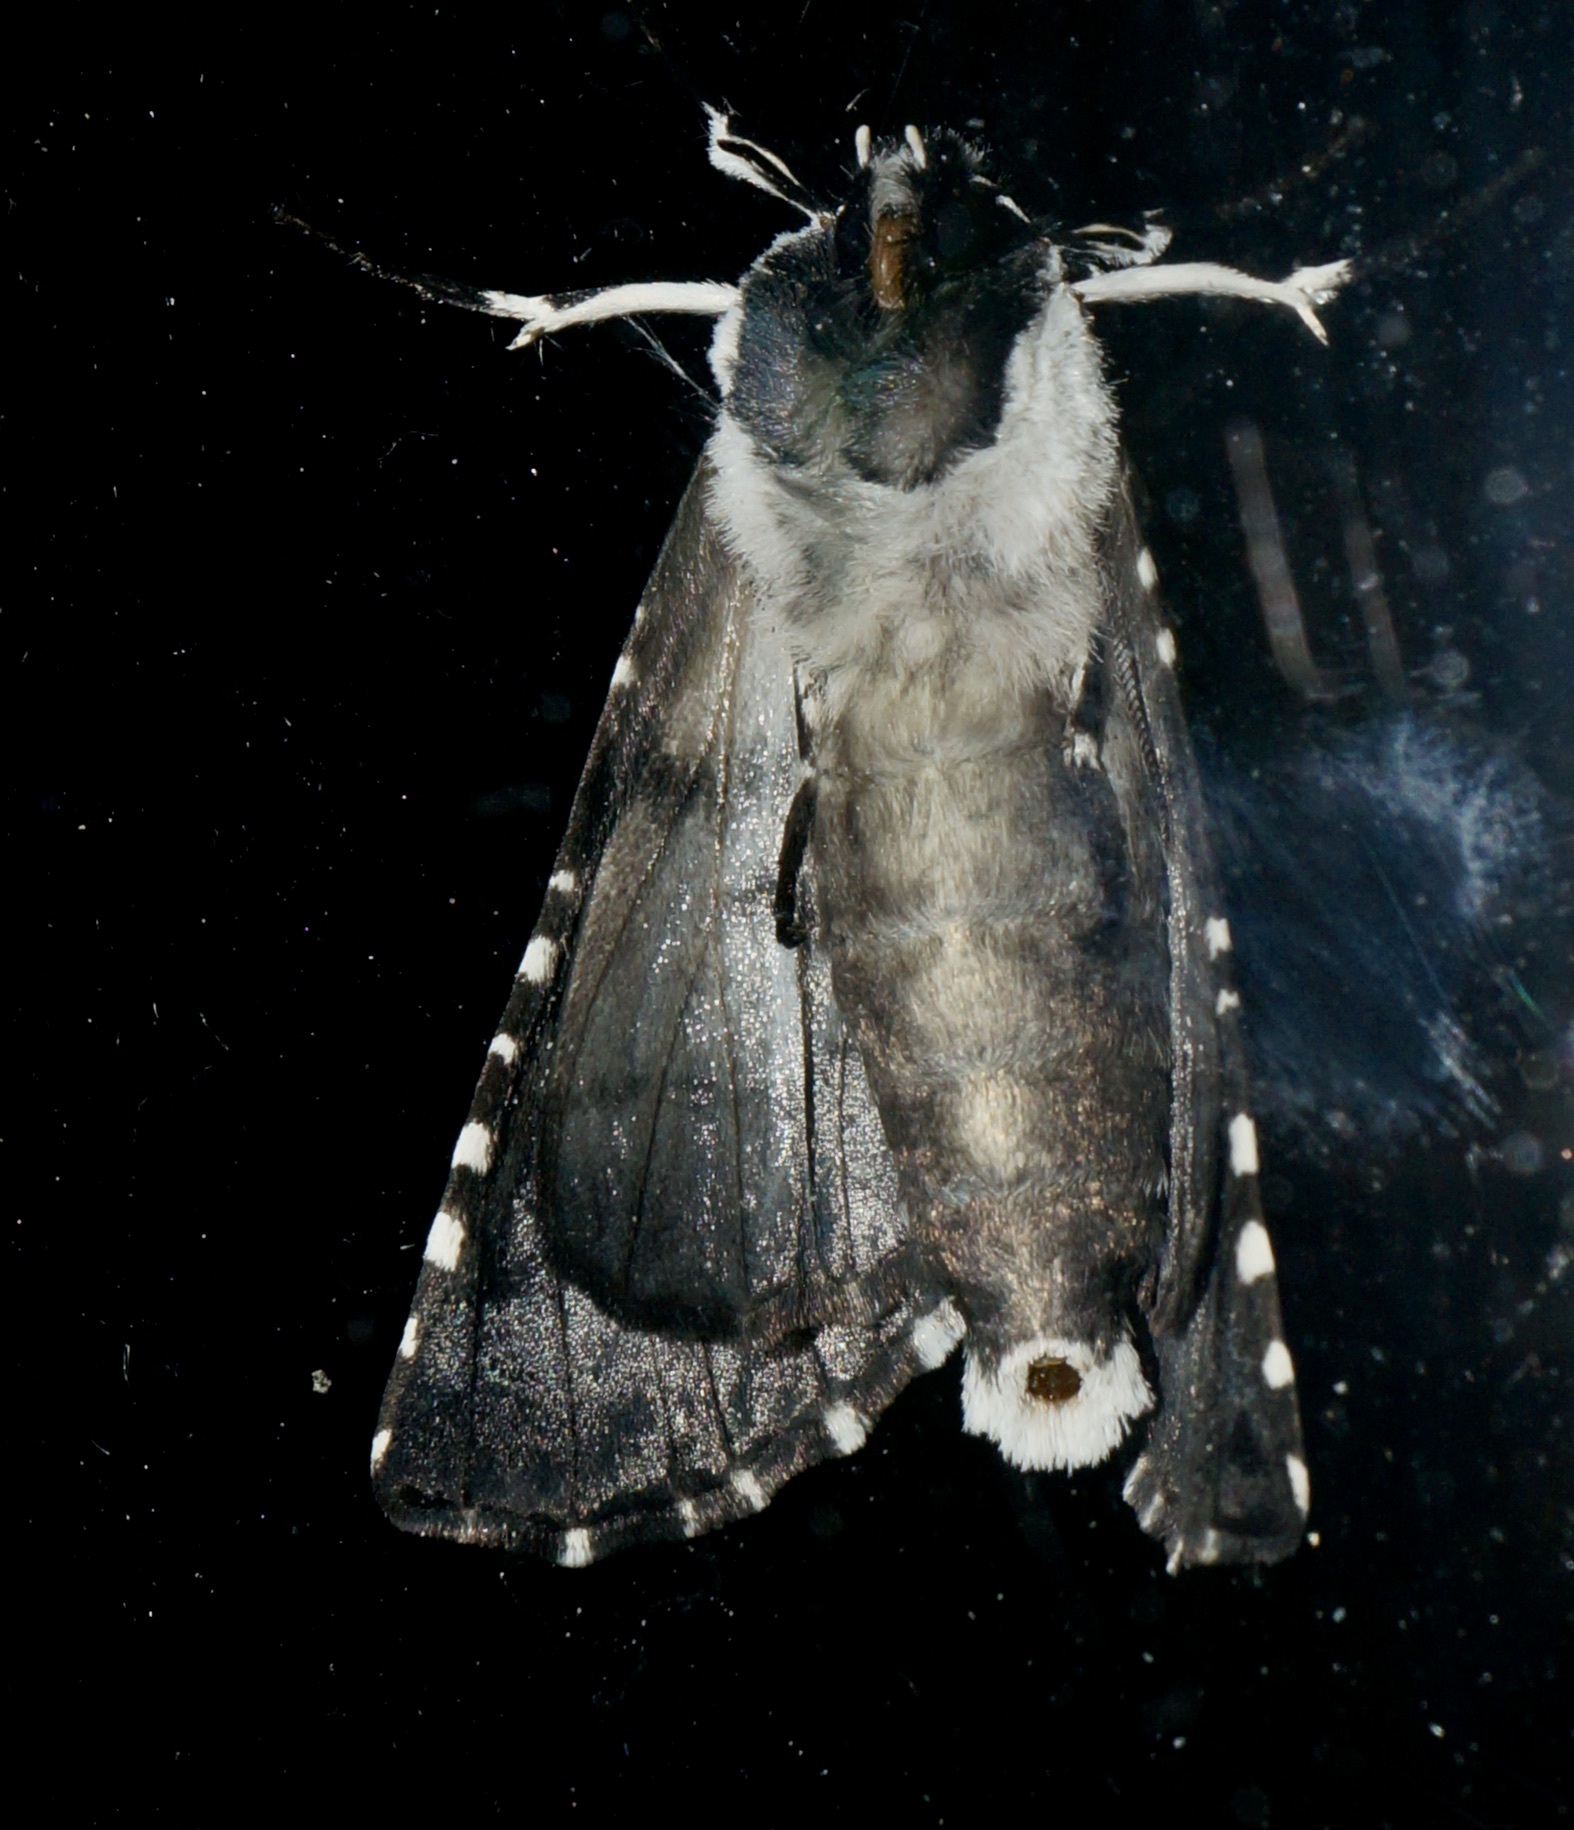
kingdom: Animalia
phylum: Arthropoda
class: Insecta
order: Lepidoptera
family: Geometridae
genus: Declana
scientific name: Declana
